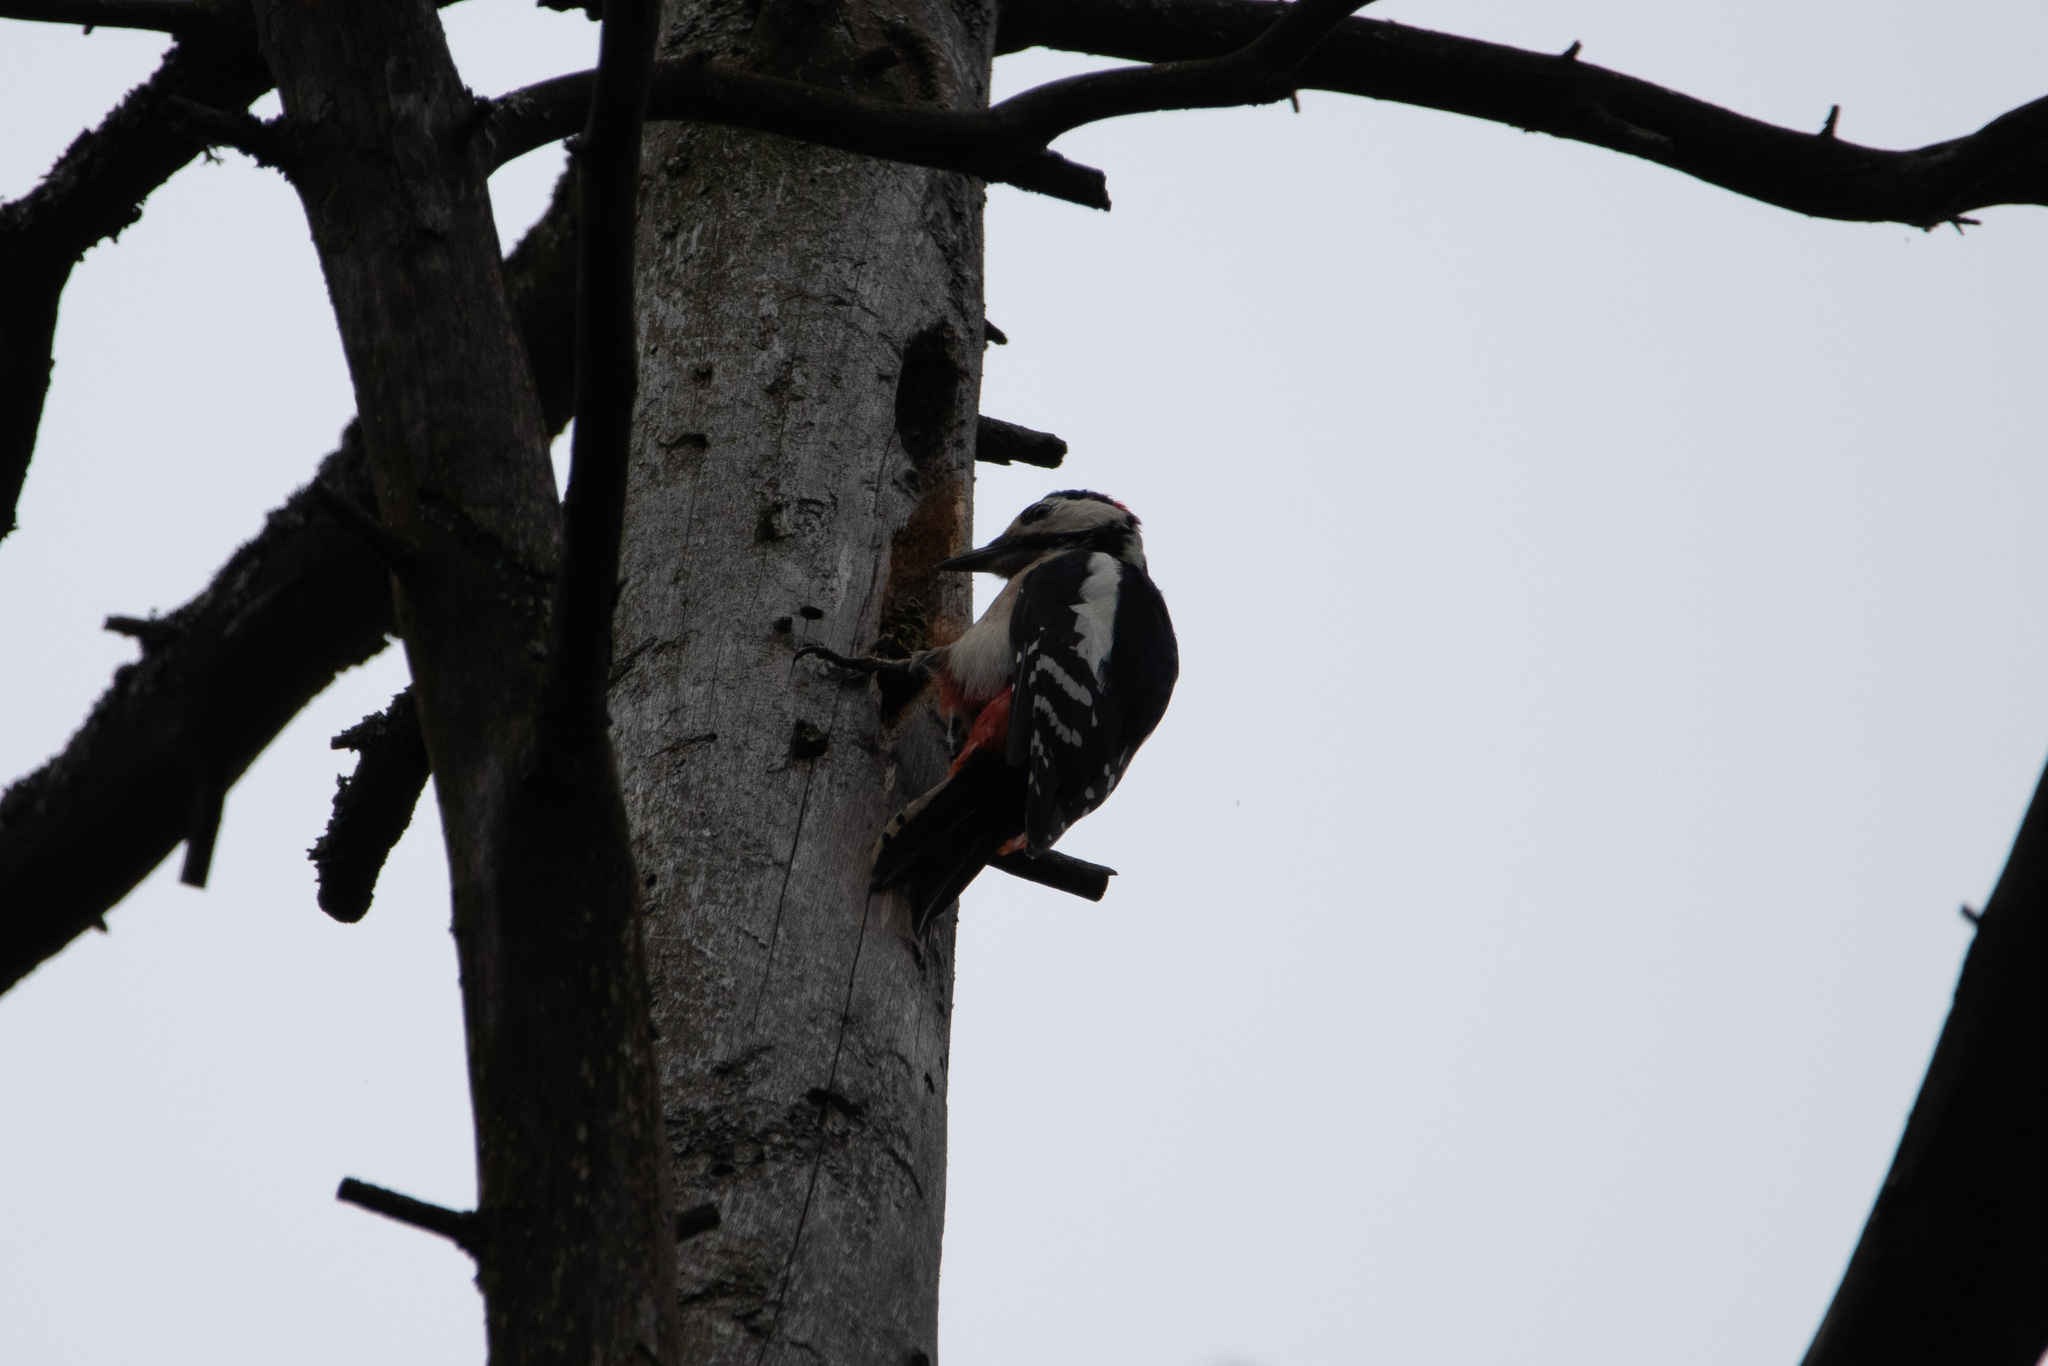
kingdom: Animalia
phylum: Chordata
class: Aves
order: Piciformes
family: Picidae
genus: Dendrocopos
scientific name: Dendrocopos major
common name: Great spotted woodpecker
